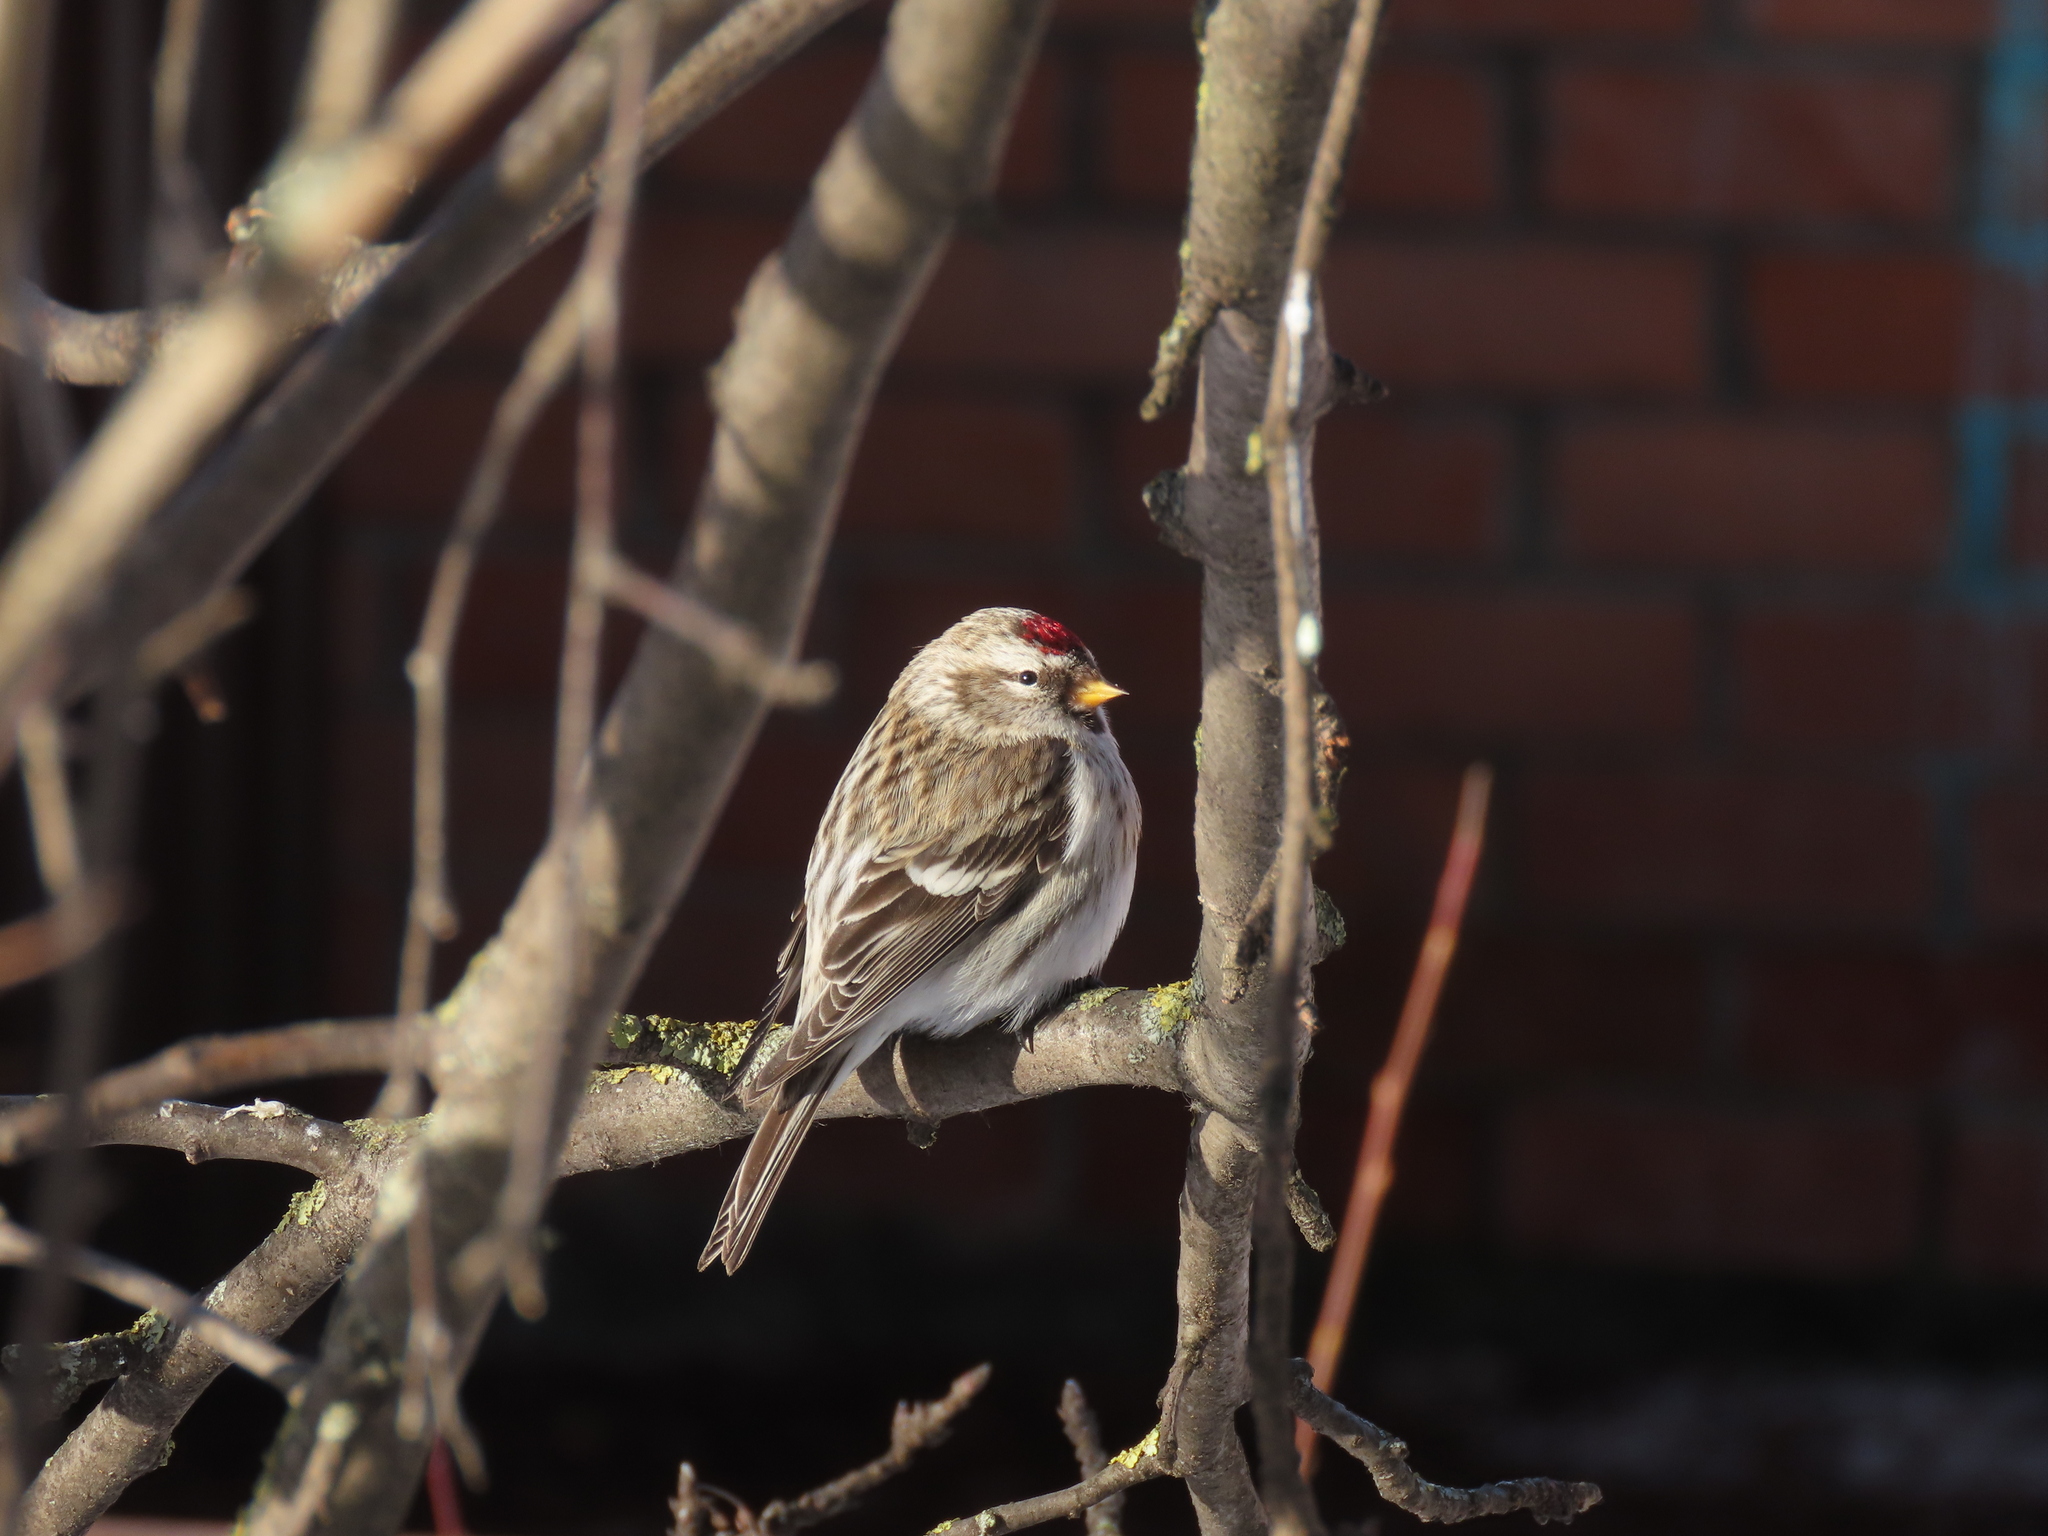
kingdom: Animalia
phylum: Chordata
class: Aves
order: Passeriformes
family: Fringillidae
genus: Acanthis
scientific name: Acanthis flammea
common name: Common redpoll
